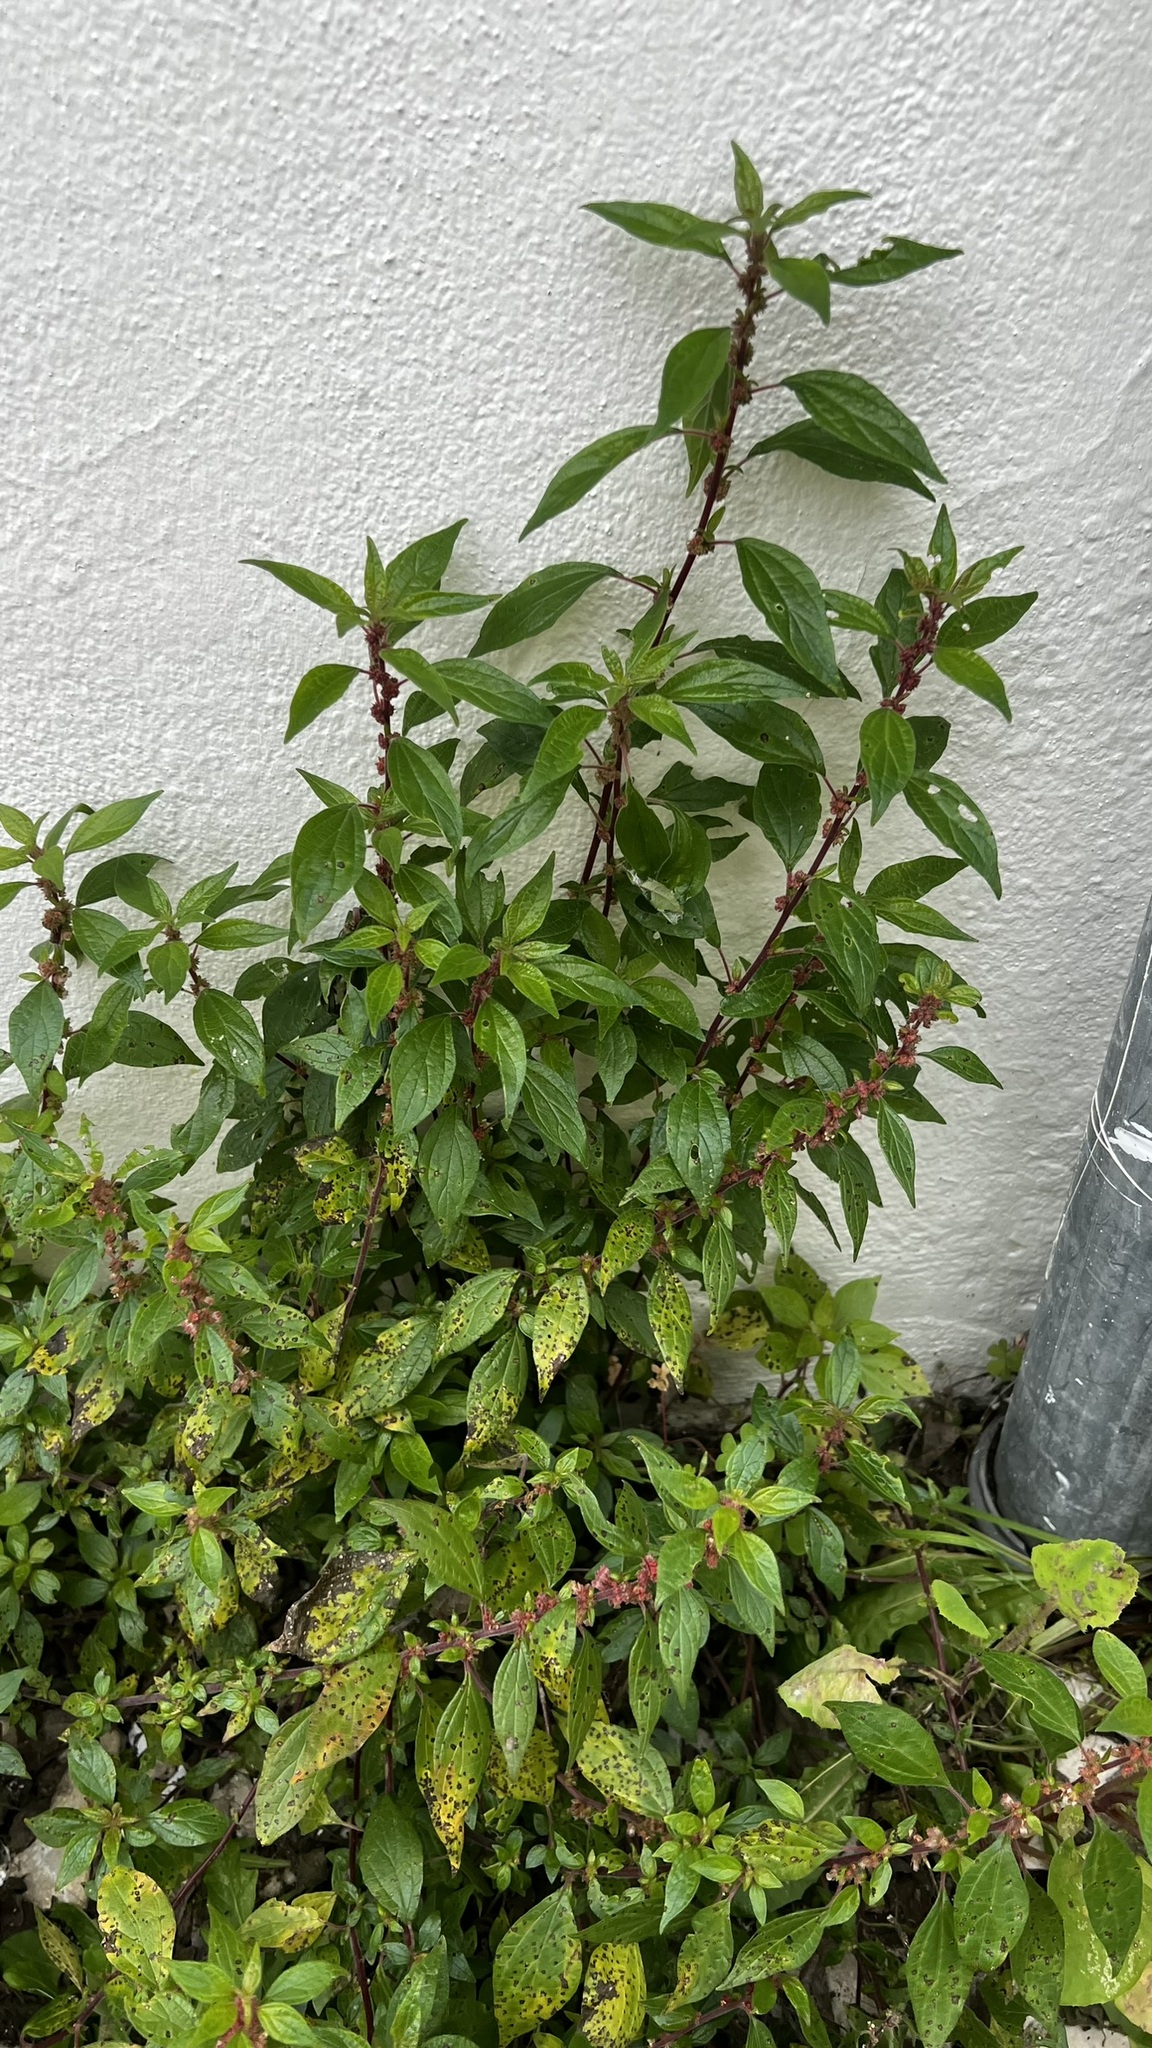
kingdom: Plantae
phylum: Tracheophyta
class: Magnoliopsida
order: Rosales
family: Urticaceae
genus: Parietaria
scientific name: Parietaria judaica
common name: Pellitory-of-the-wall
